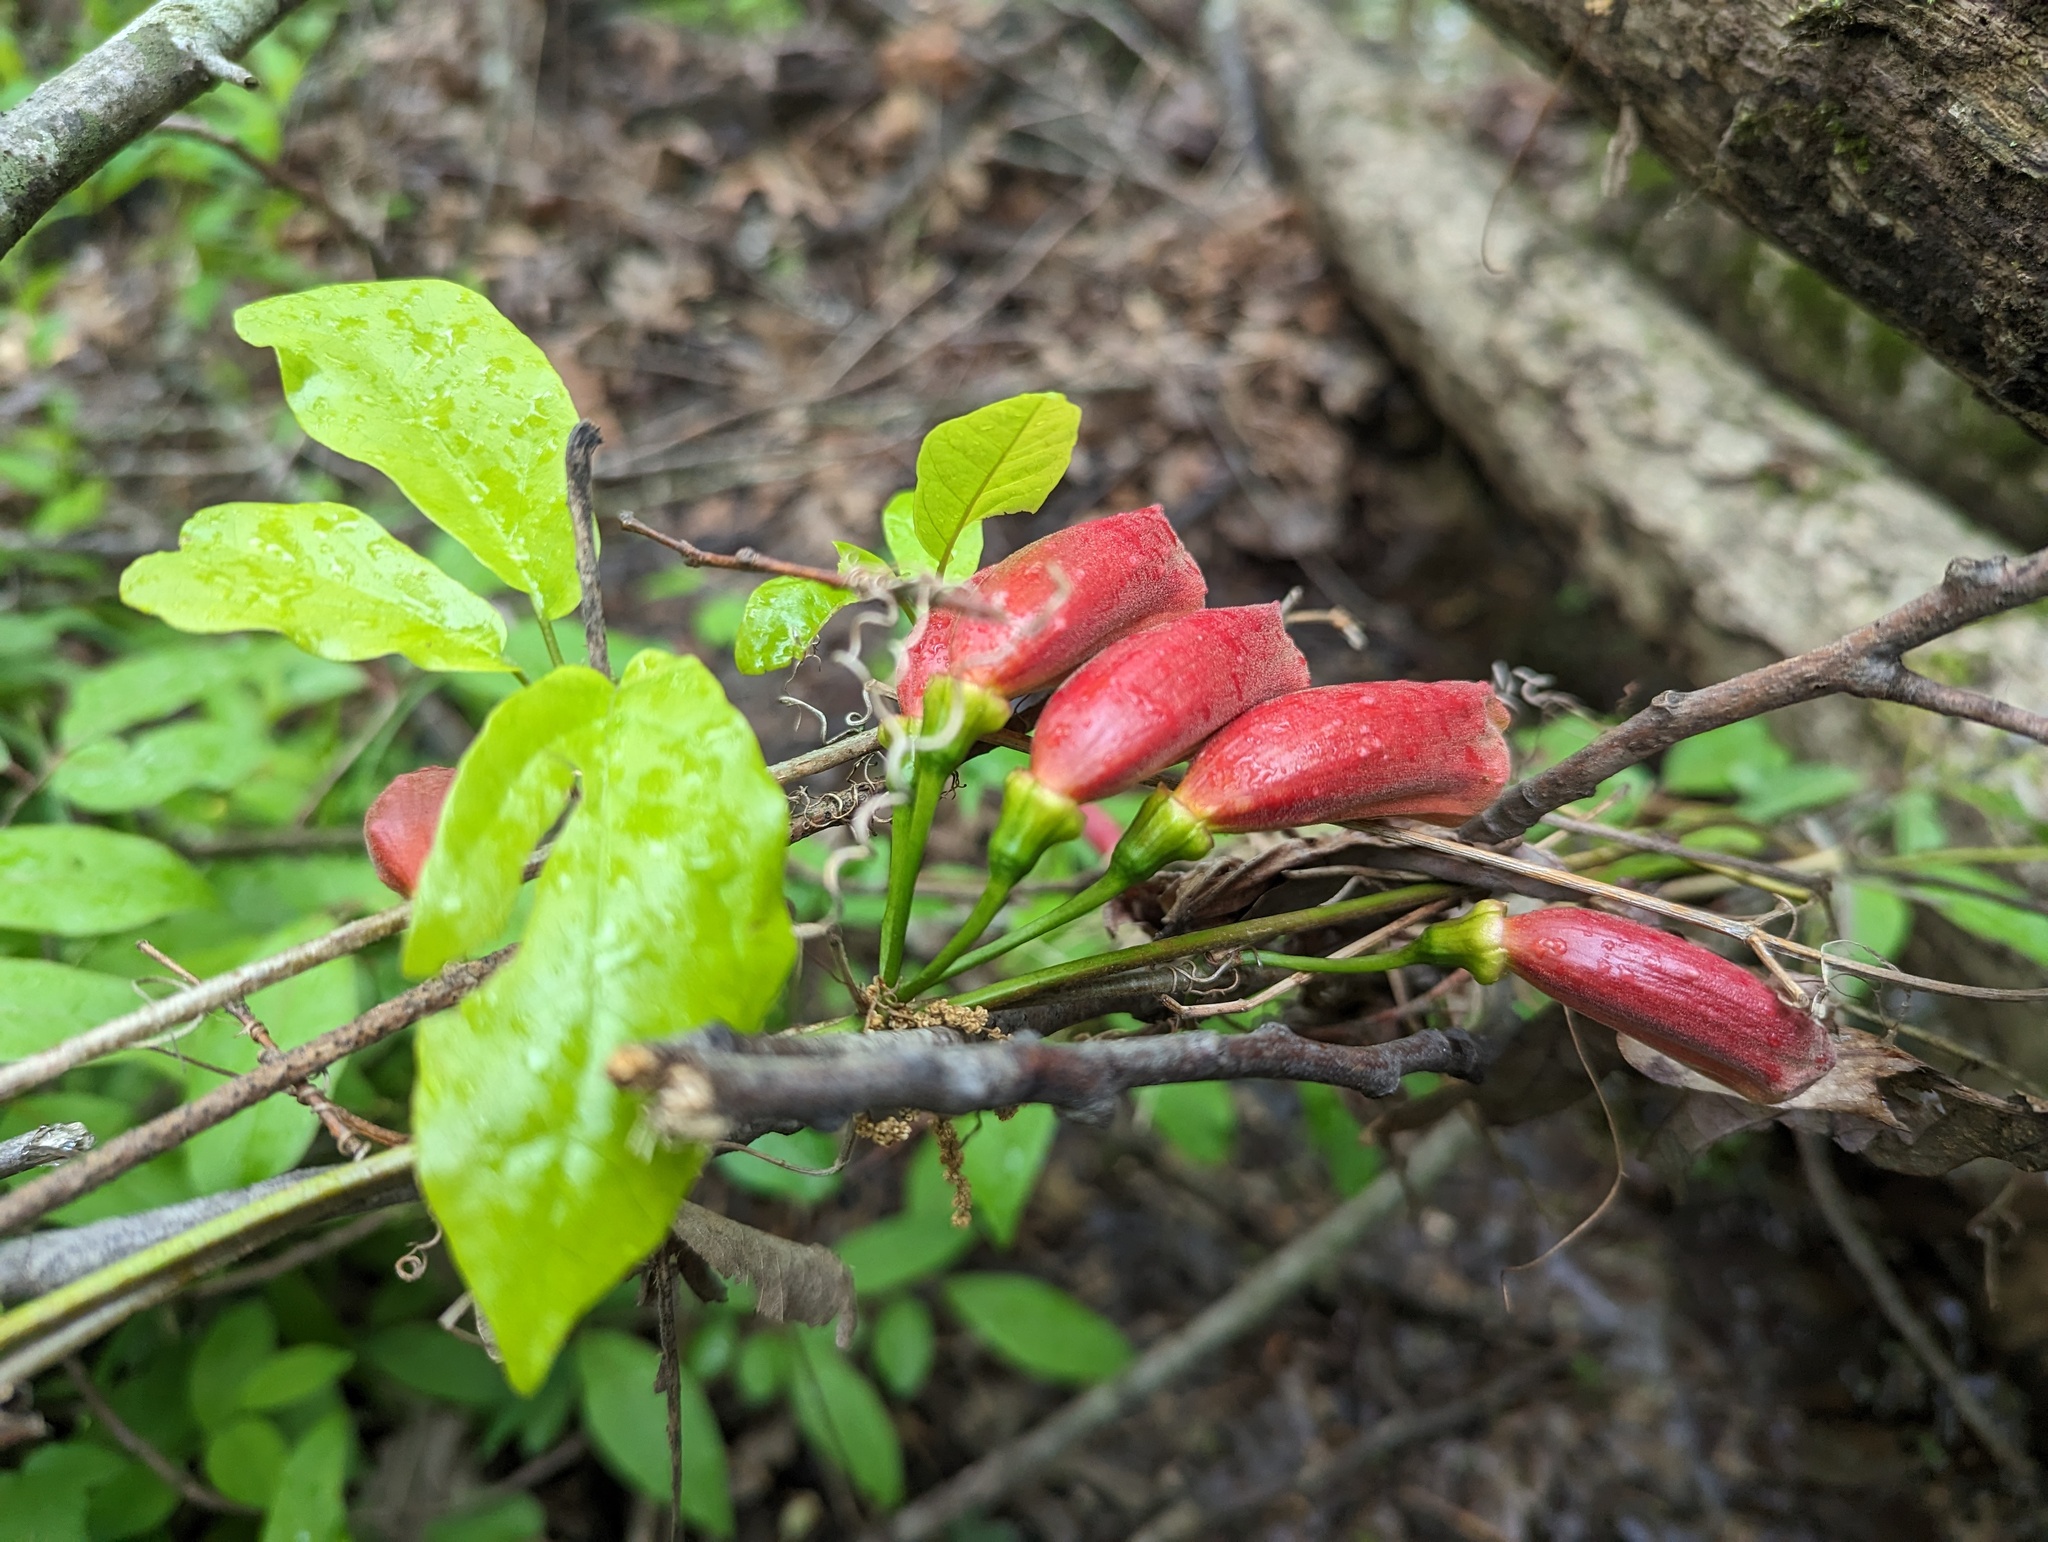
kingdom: Plantae
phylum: Tracheophyta
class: Magnoliopsida
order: Lamiales
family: Bignoniaceae
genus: Bignonia
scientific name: Bignonia capreolata
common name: Crossvine
